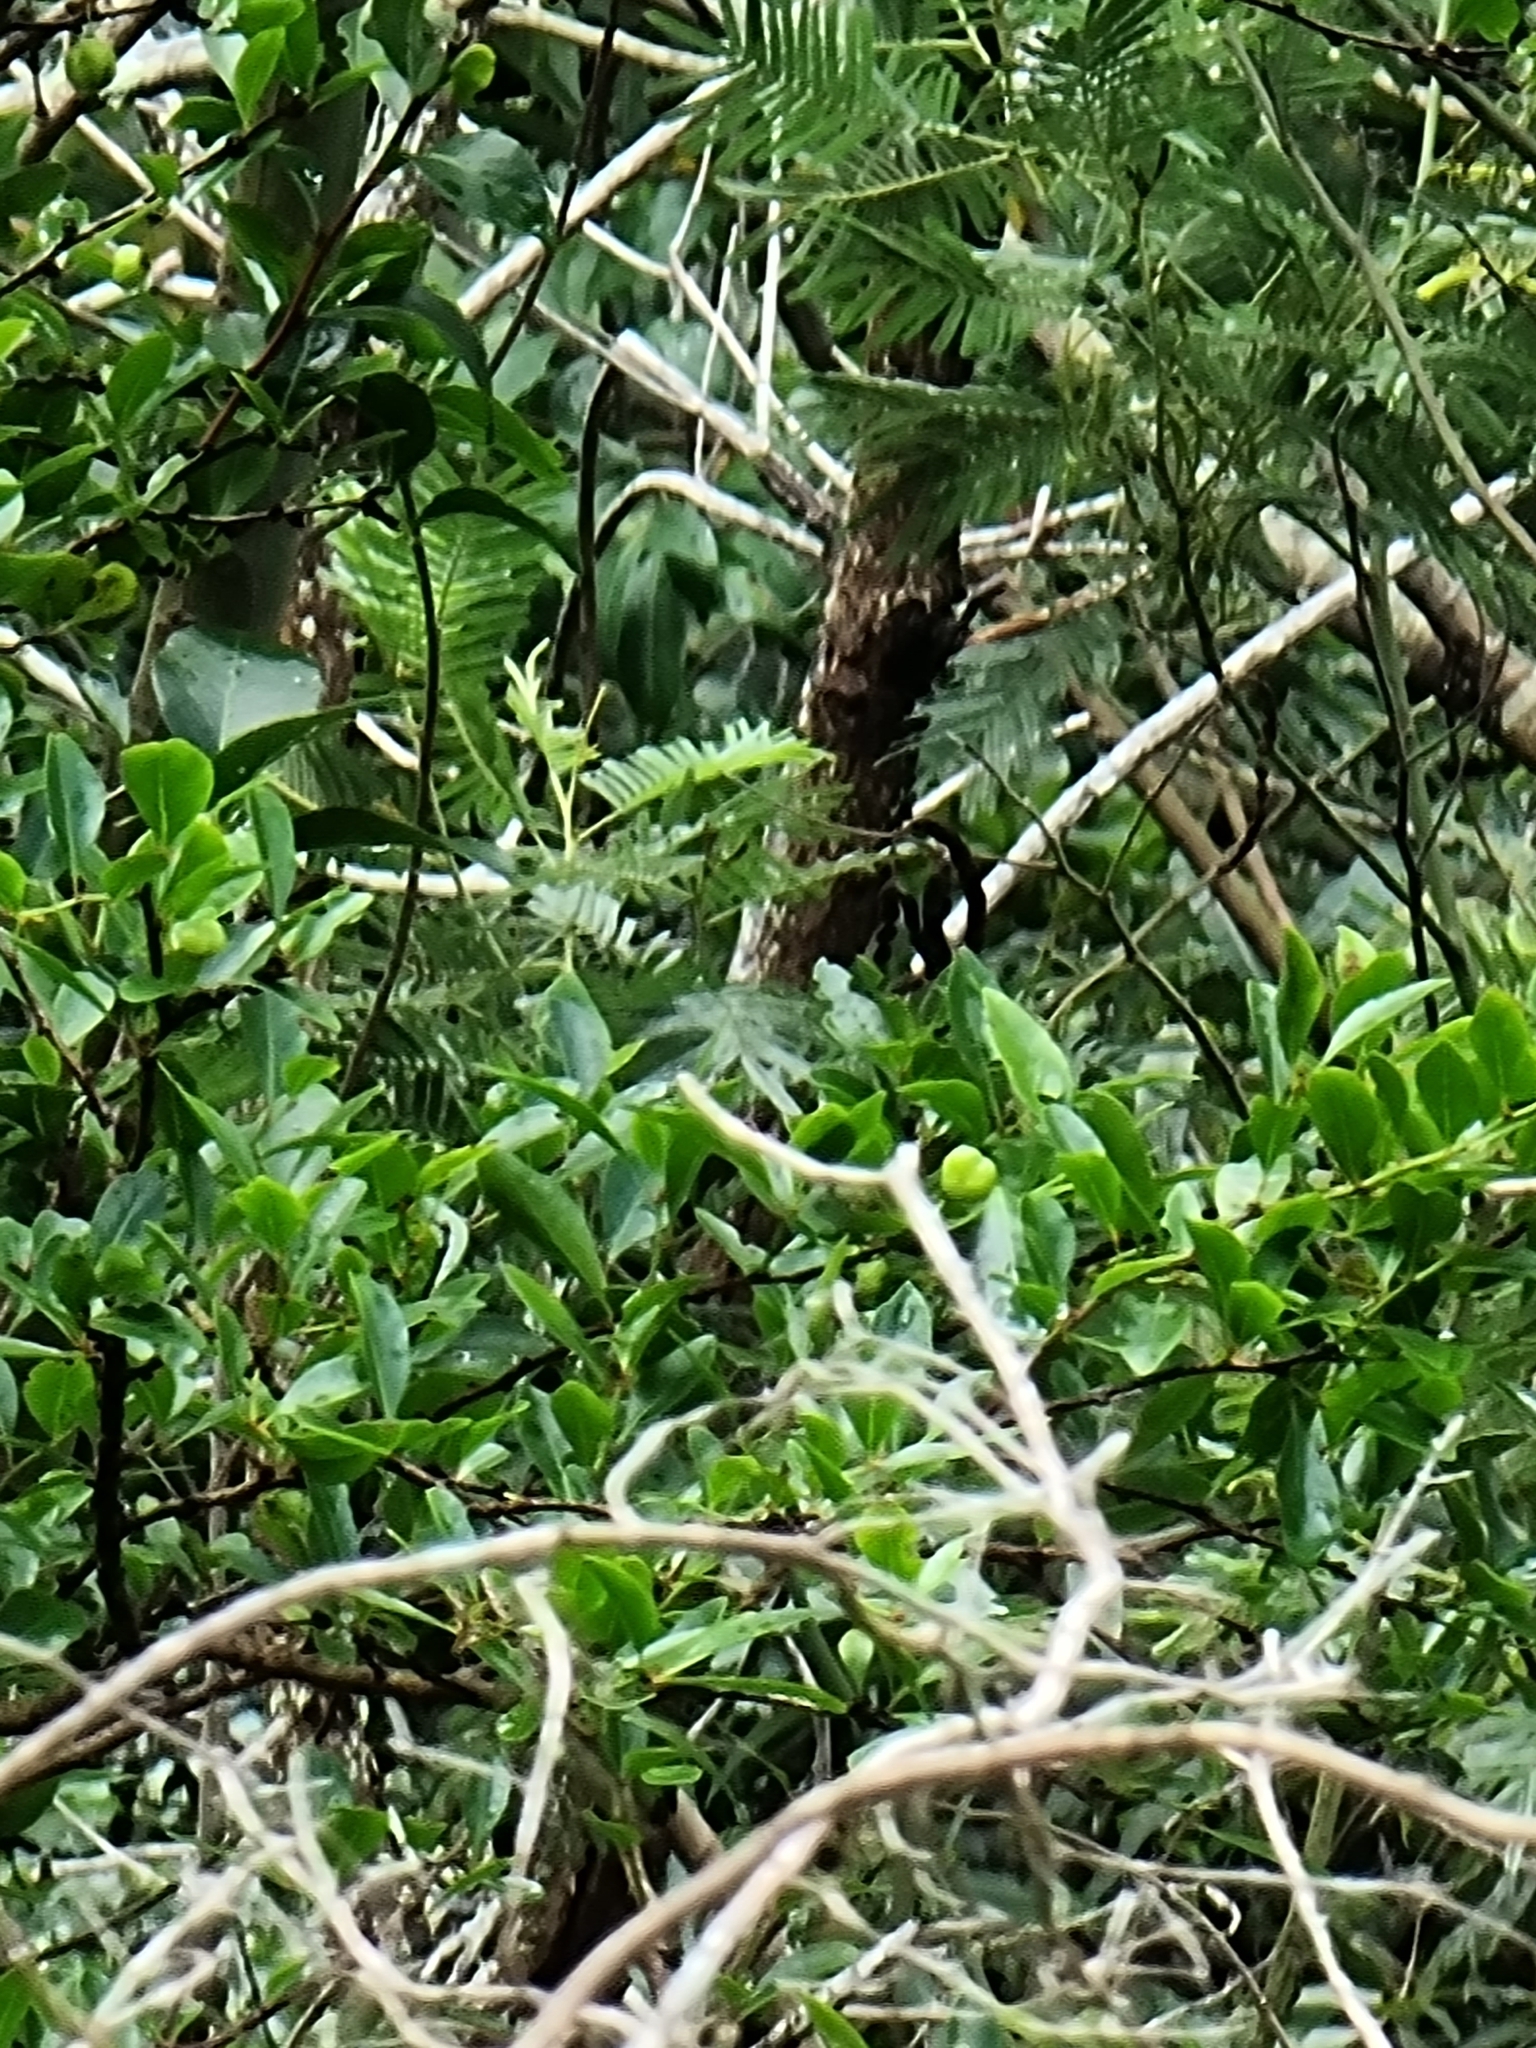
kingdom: Plantae
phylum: Tracheophyta
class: Magnoliopsida
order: Celastrales
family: Celastraceae
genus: Gymnosporia
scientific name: Gymnosporia dryandri
